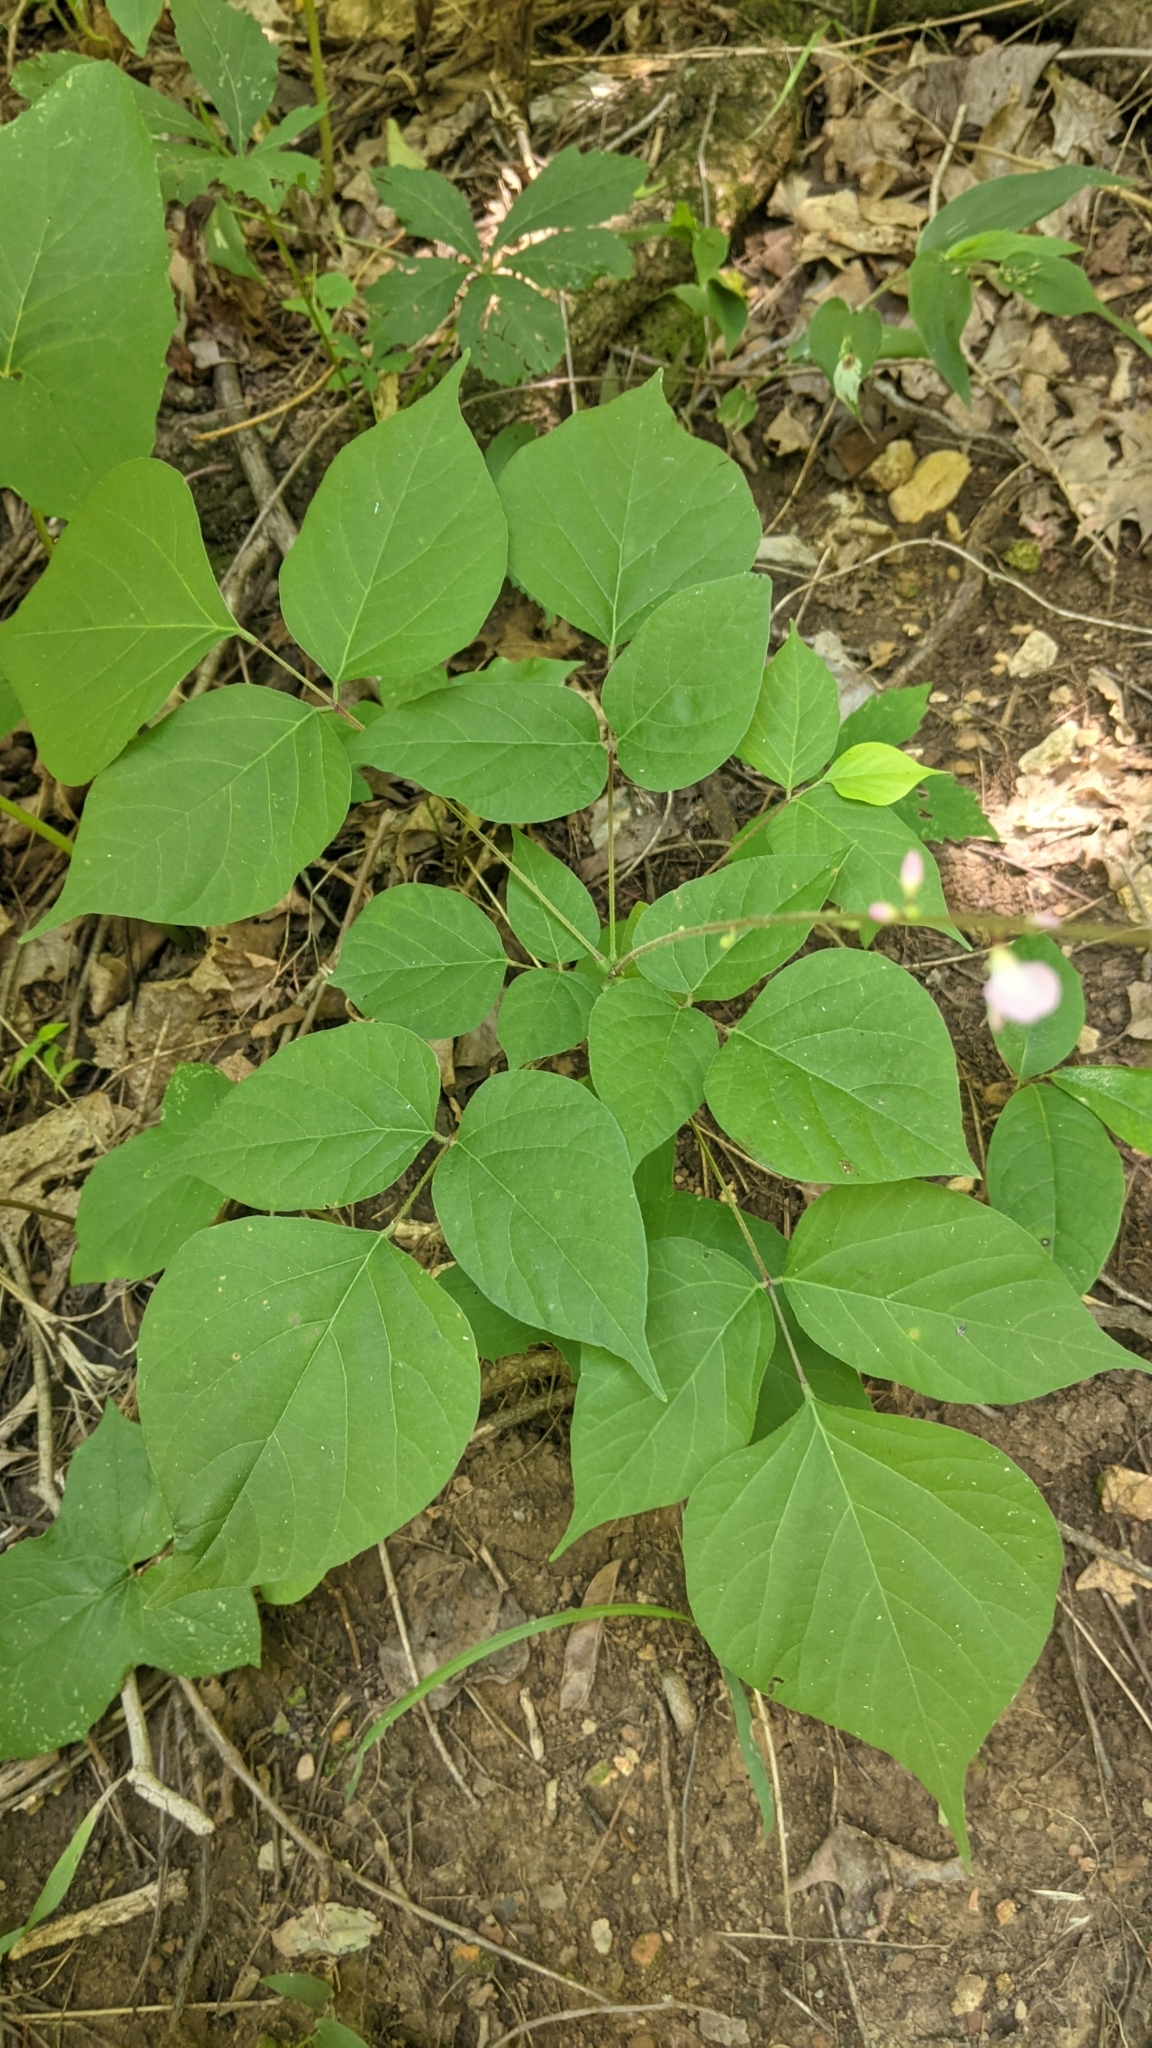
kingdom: Plantae
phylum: Tracheophyta
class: Magnoliopsida
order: Fabales
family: Fabaceae
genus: Hylodesmum
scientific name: Hylodesmum glutinosum
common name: Clustered-leaved tick-trefoil
